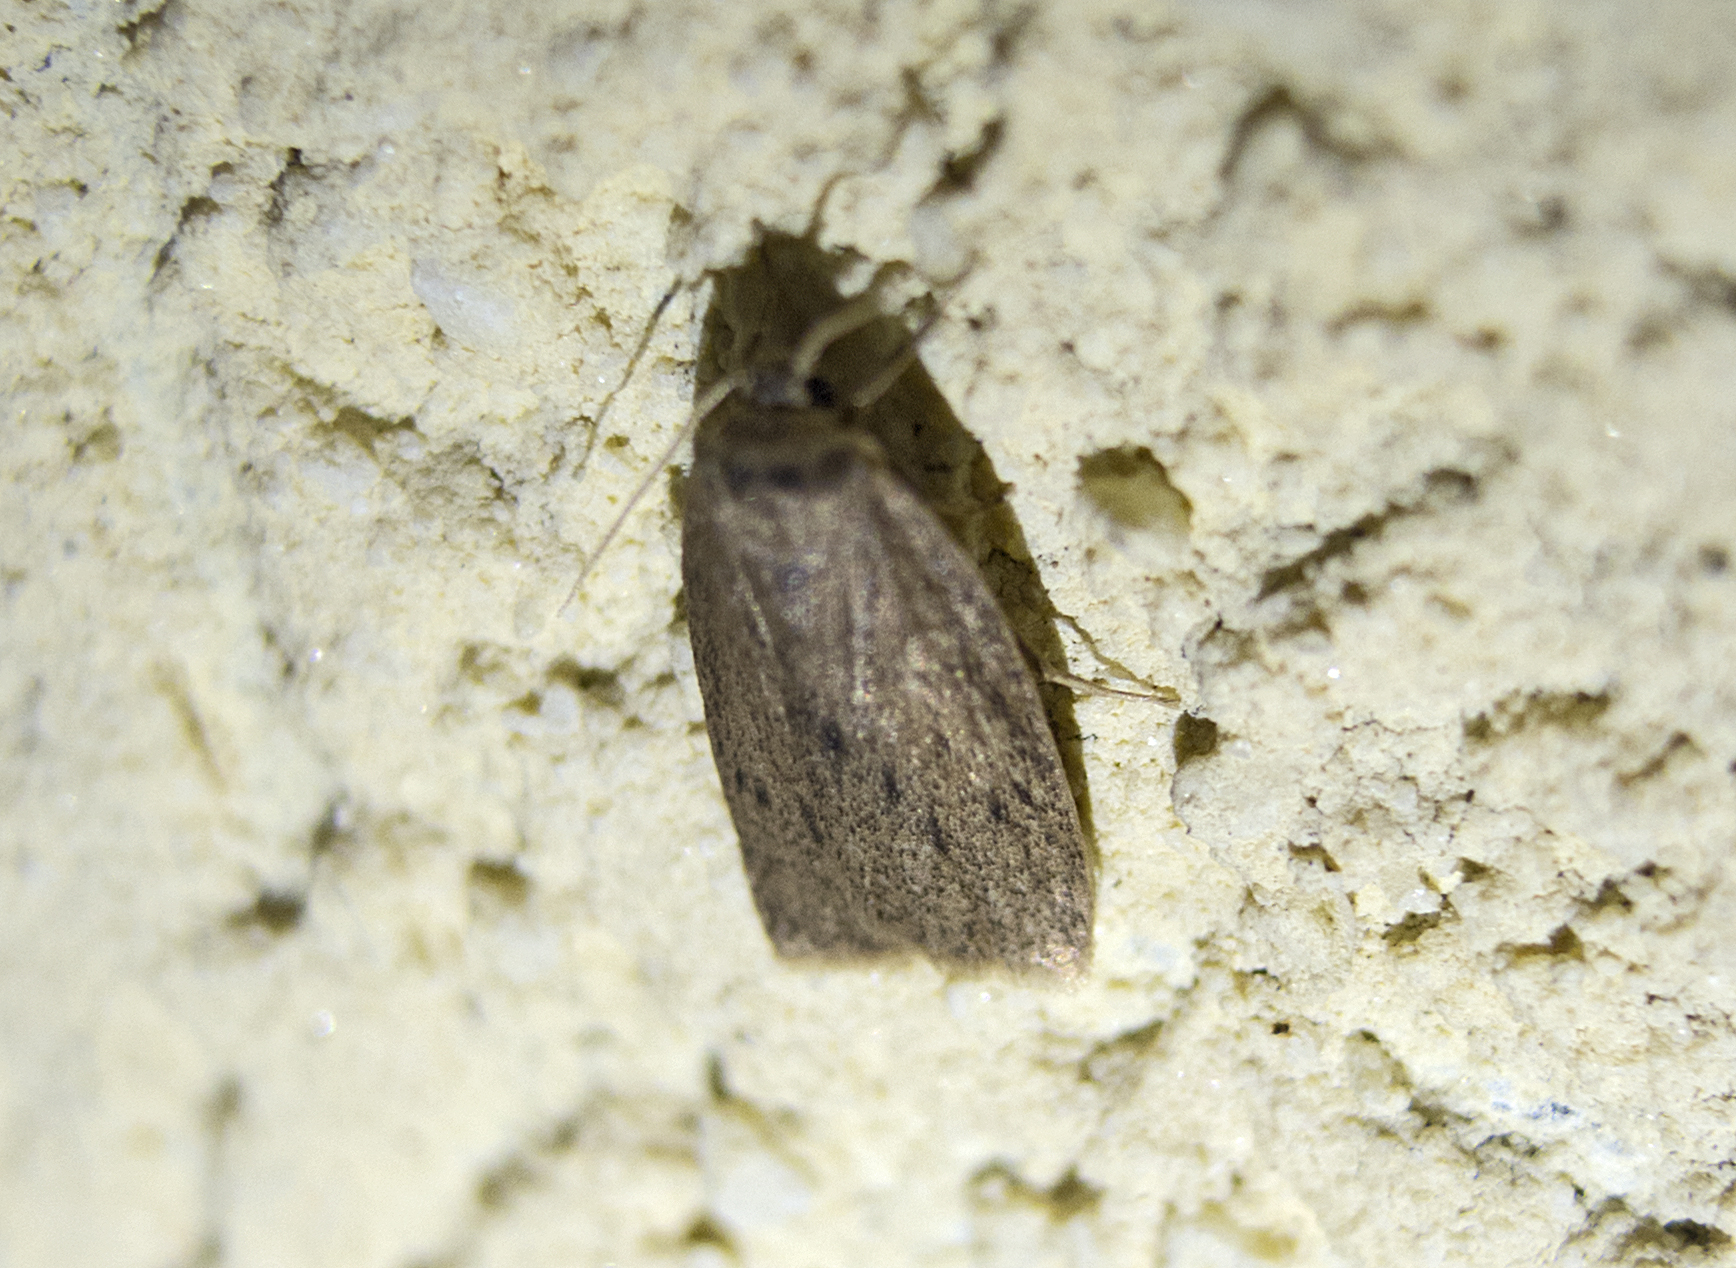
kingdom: Animalia
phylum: Arthropoda
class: Insecta
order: Lepidoptera
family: Erebidae
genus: Pelosia
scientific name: Pelosia obtusa
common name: Small dotted footman
